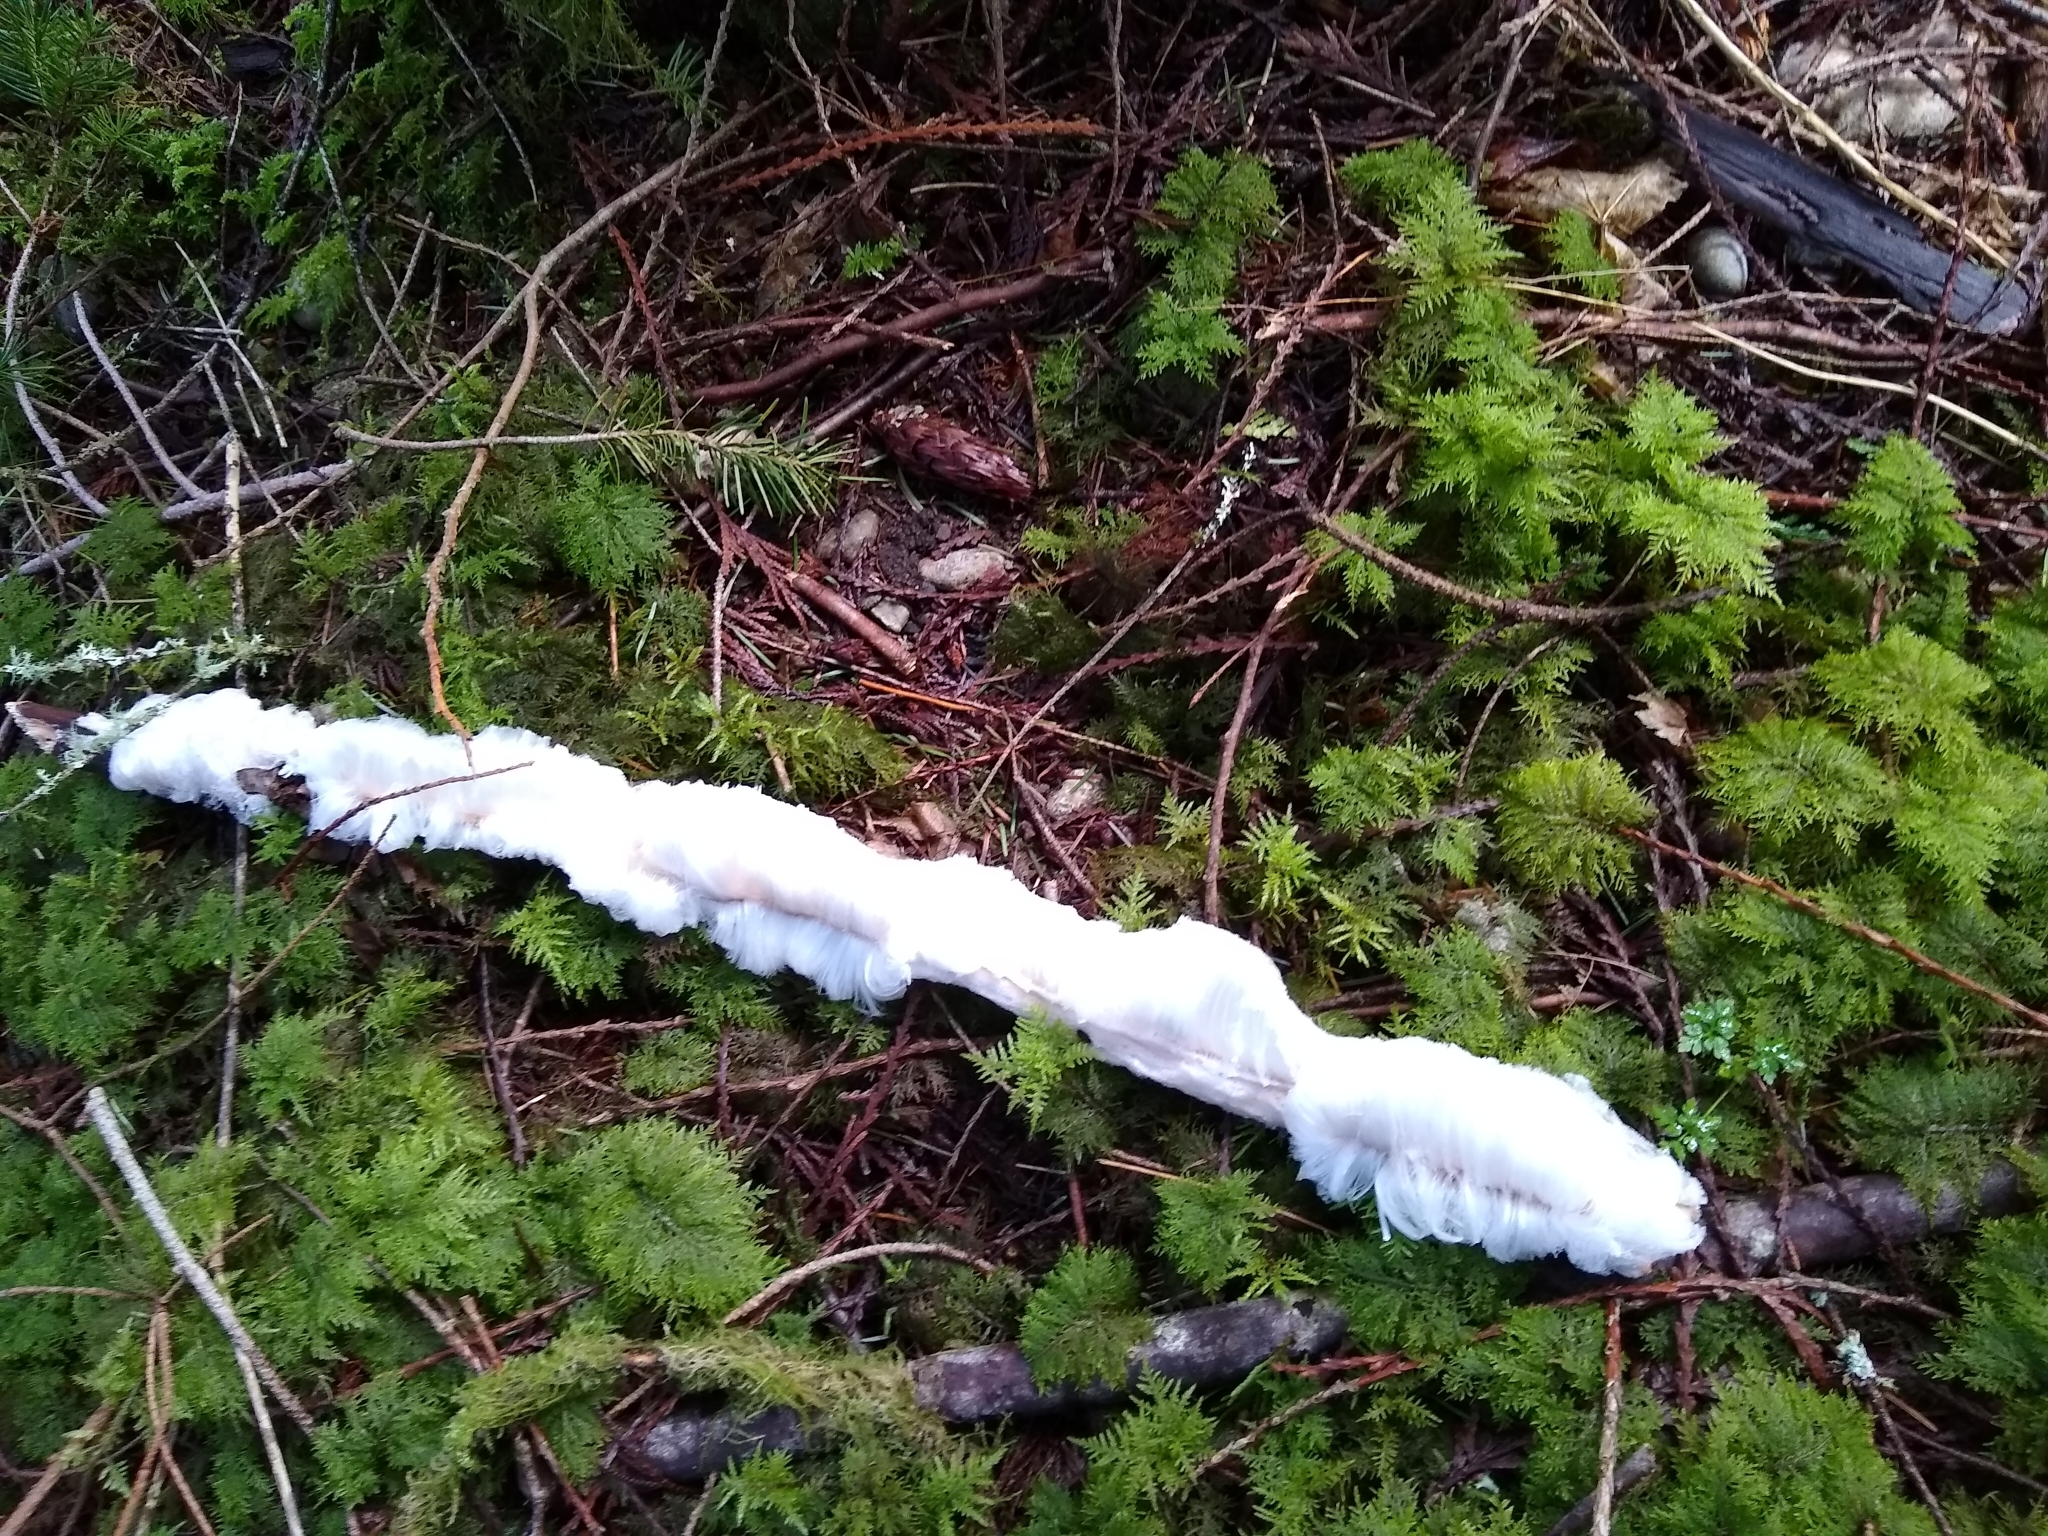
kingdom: Fungi
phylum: Basidiomycota
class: Agaricomycetes
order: Auriculariales
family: Auriculariaceae
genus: Exidiopsis
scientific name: Exidiopsis effusa
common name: Hair ice crust
